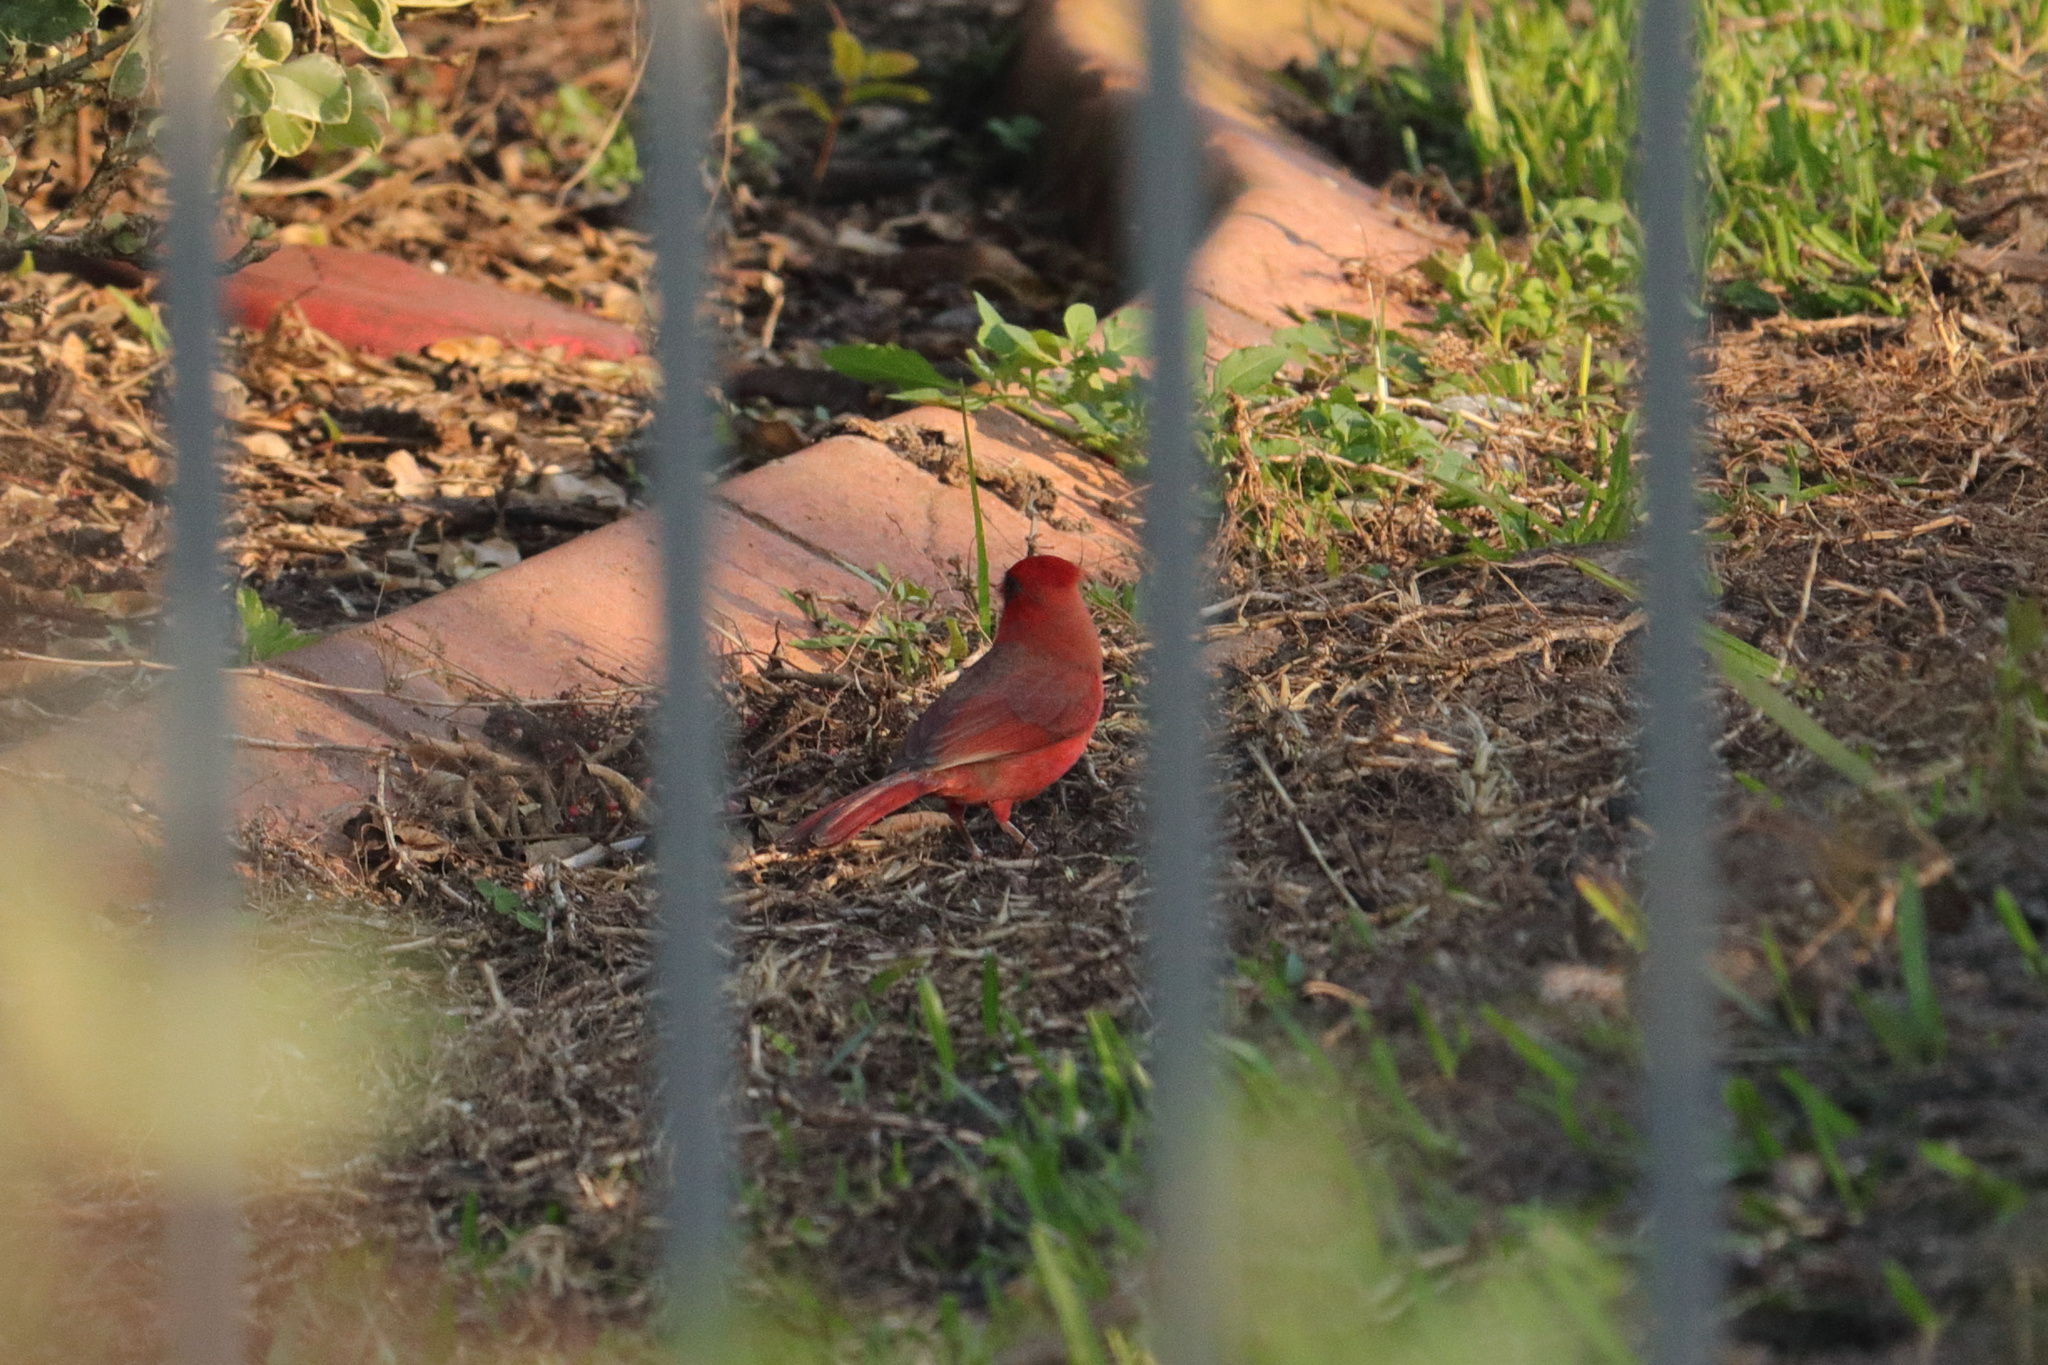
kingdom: Animalia
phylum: Chordata
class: Aves
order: Passeriformes
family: Cardinalidae
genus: Cardinalis
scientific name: Cardinalis cardinalis
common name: Northern cardinal
